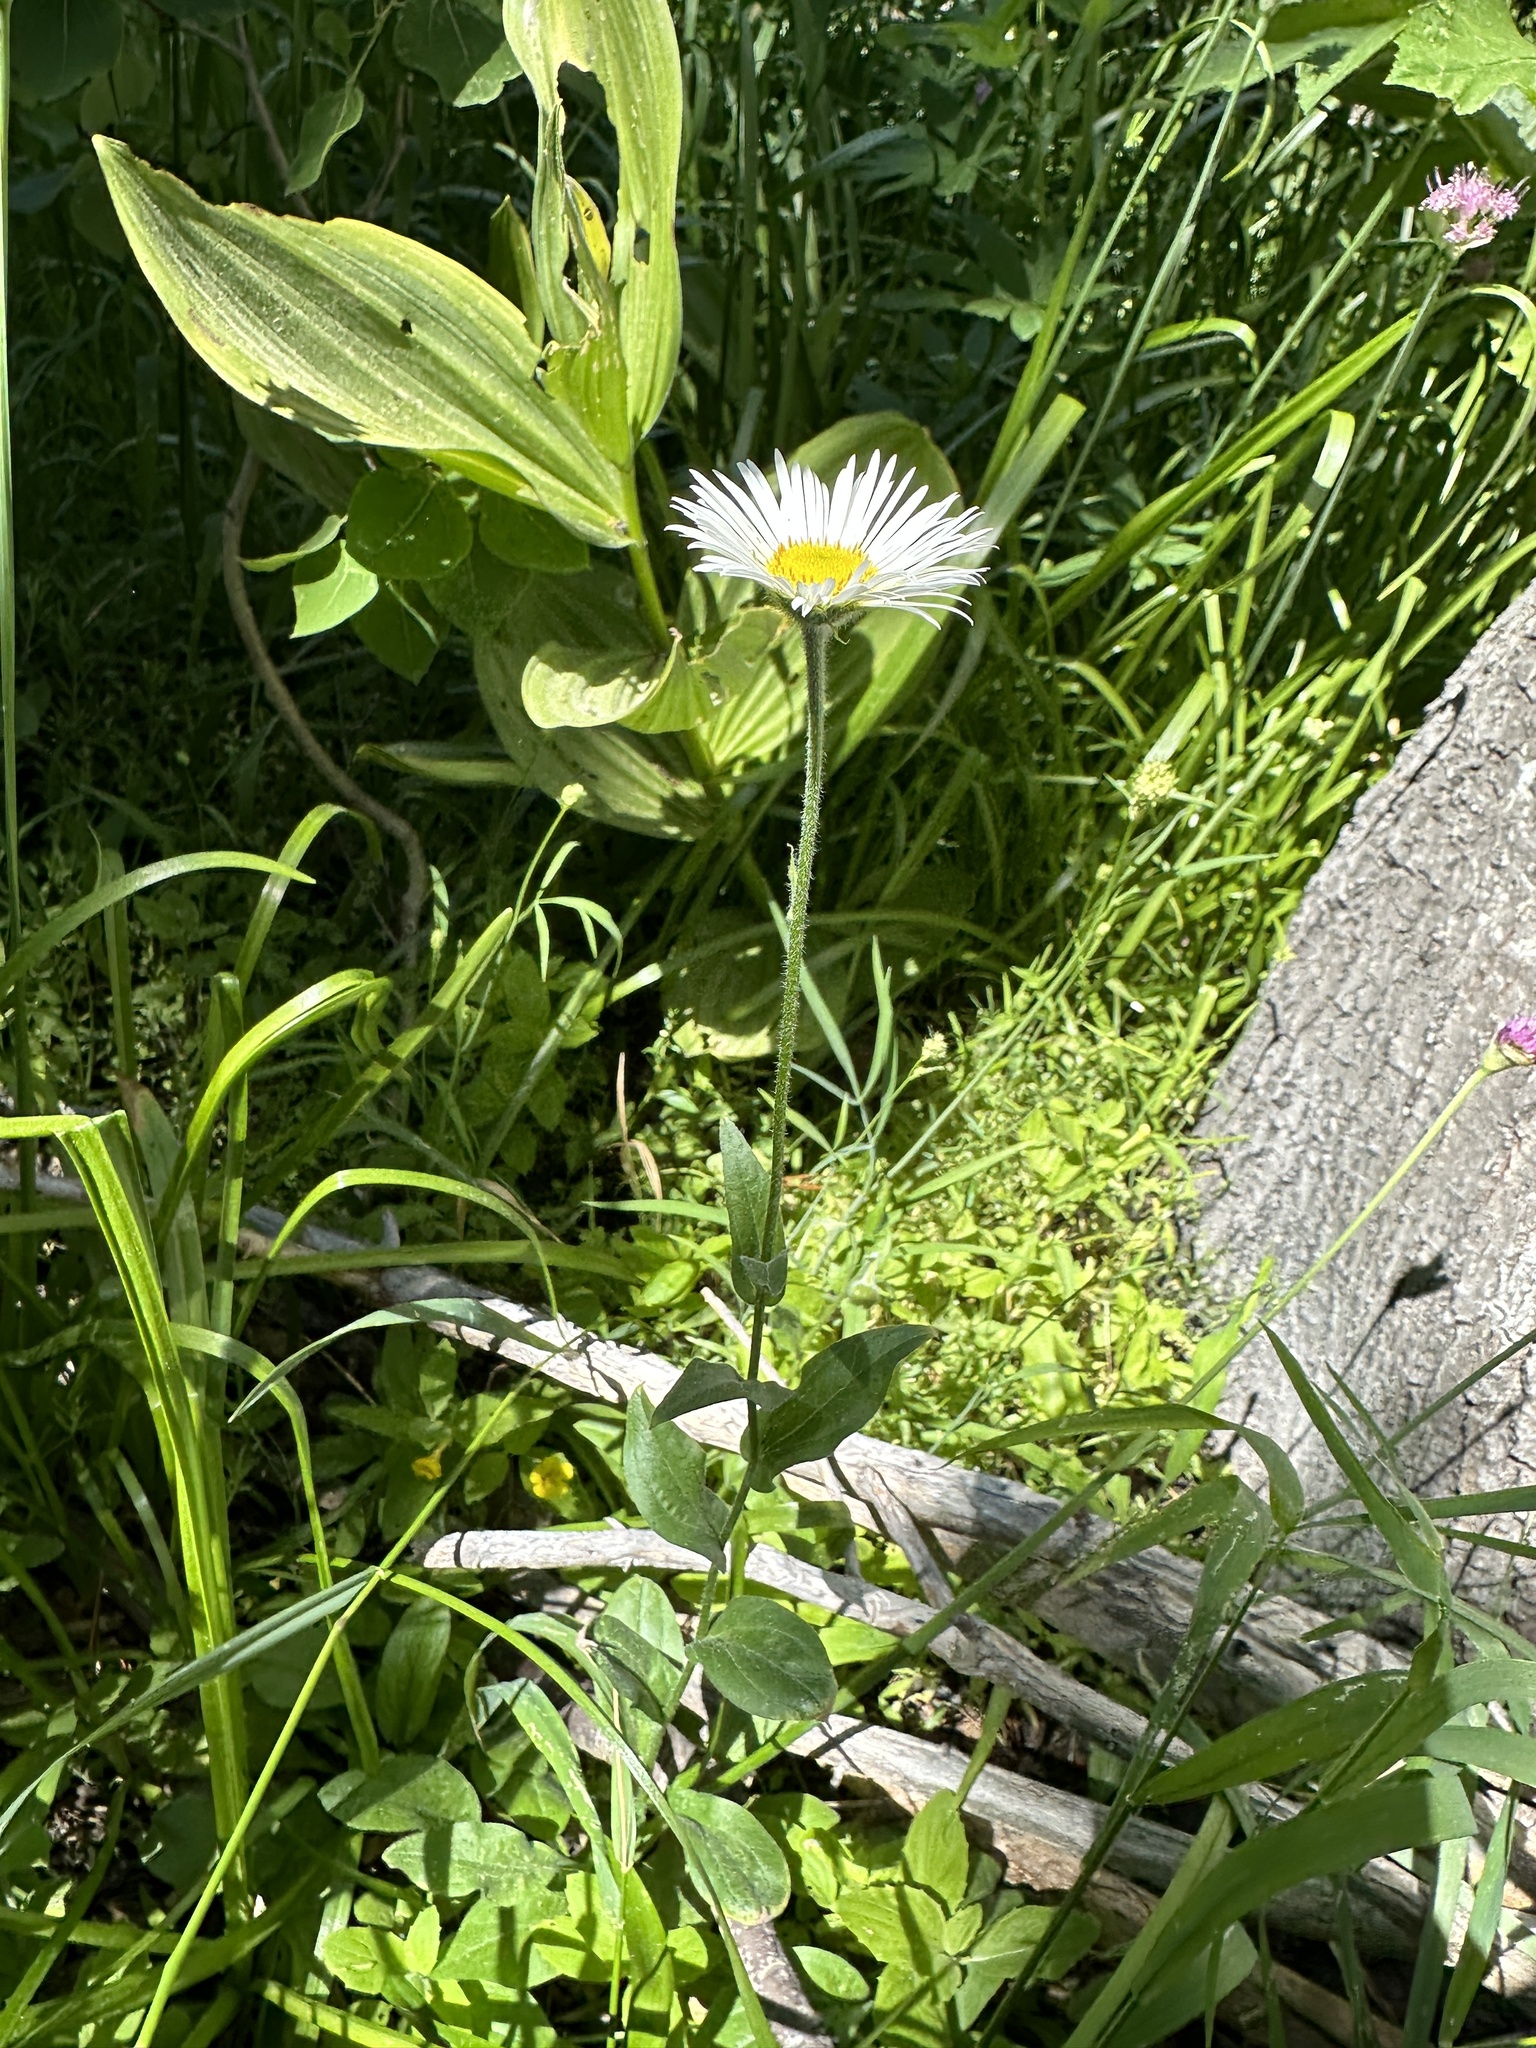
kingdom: Plantae
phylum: Tracheophyta
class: Magnoliopsida
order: Asterales
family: Asteraceae
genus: Erigeron
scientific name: Erigeron coulteri
